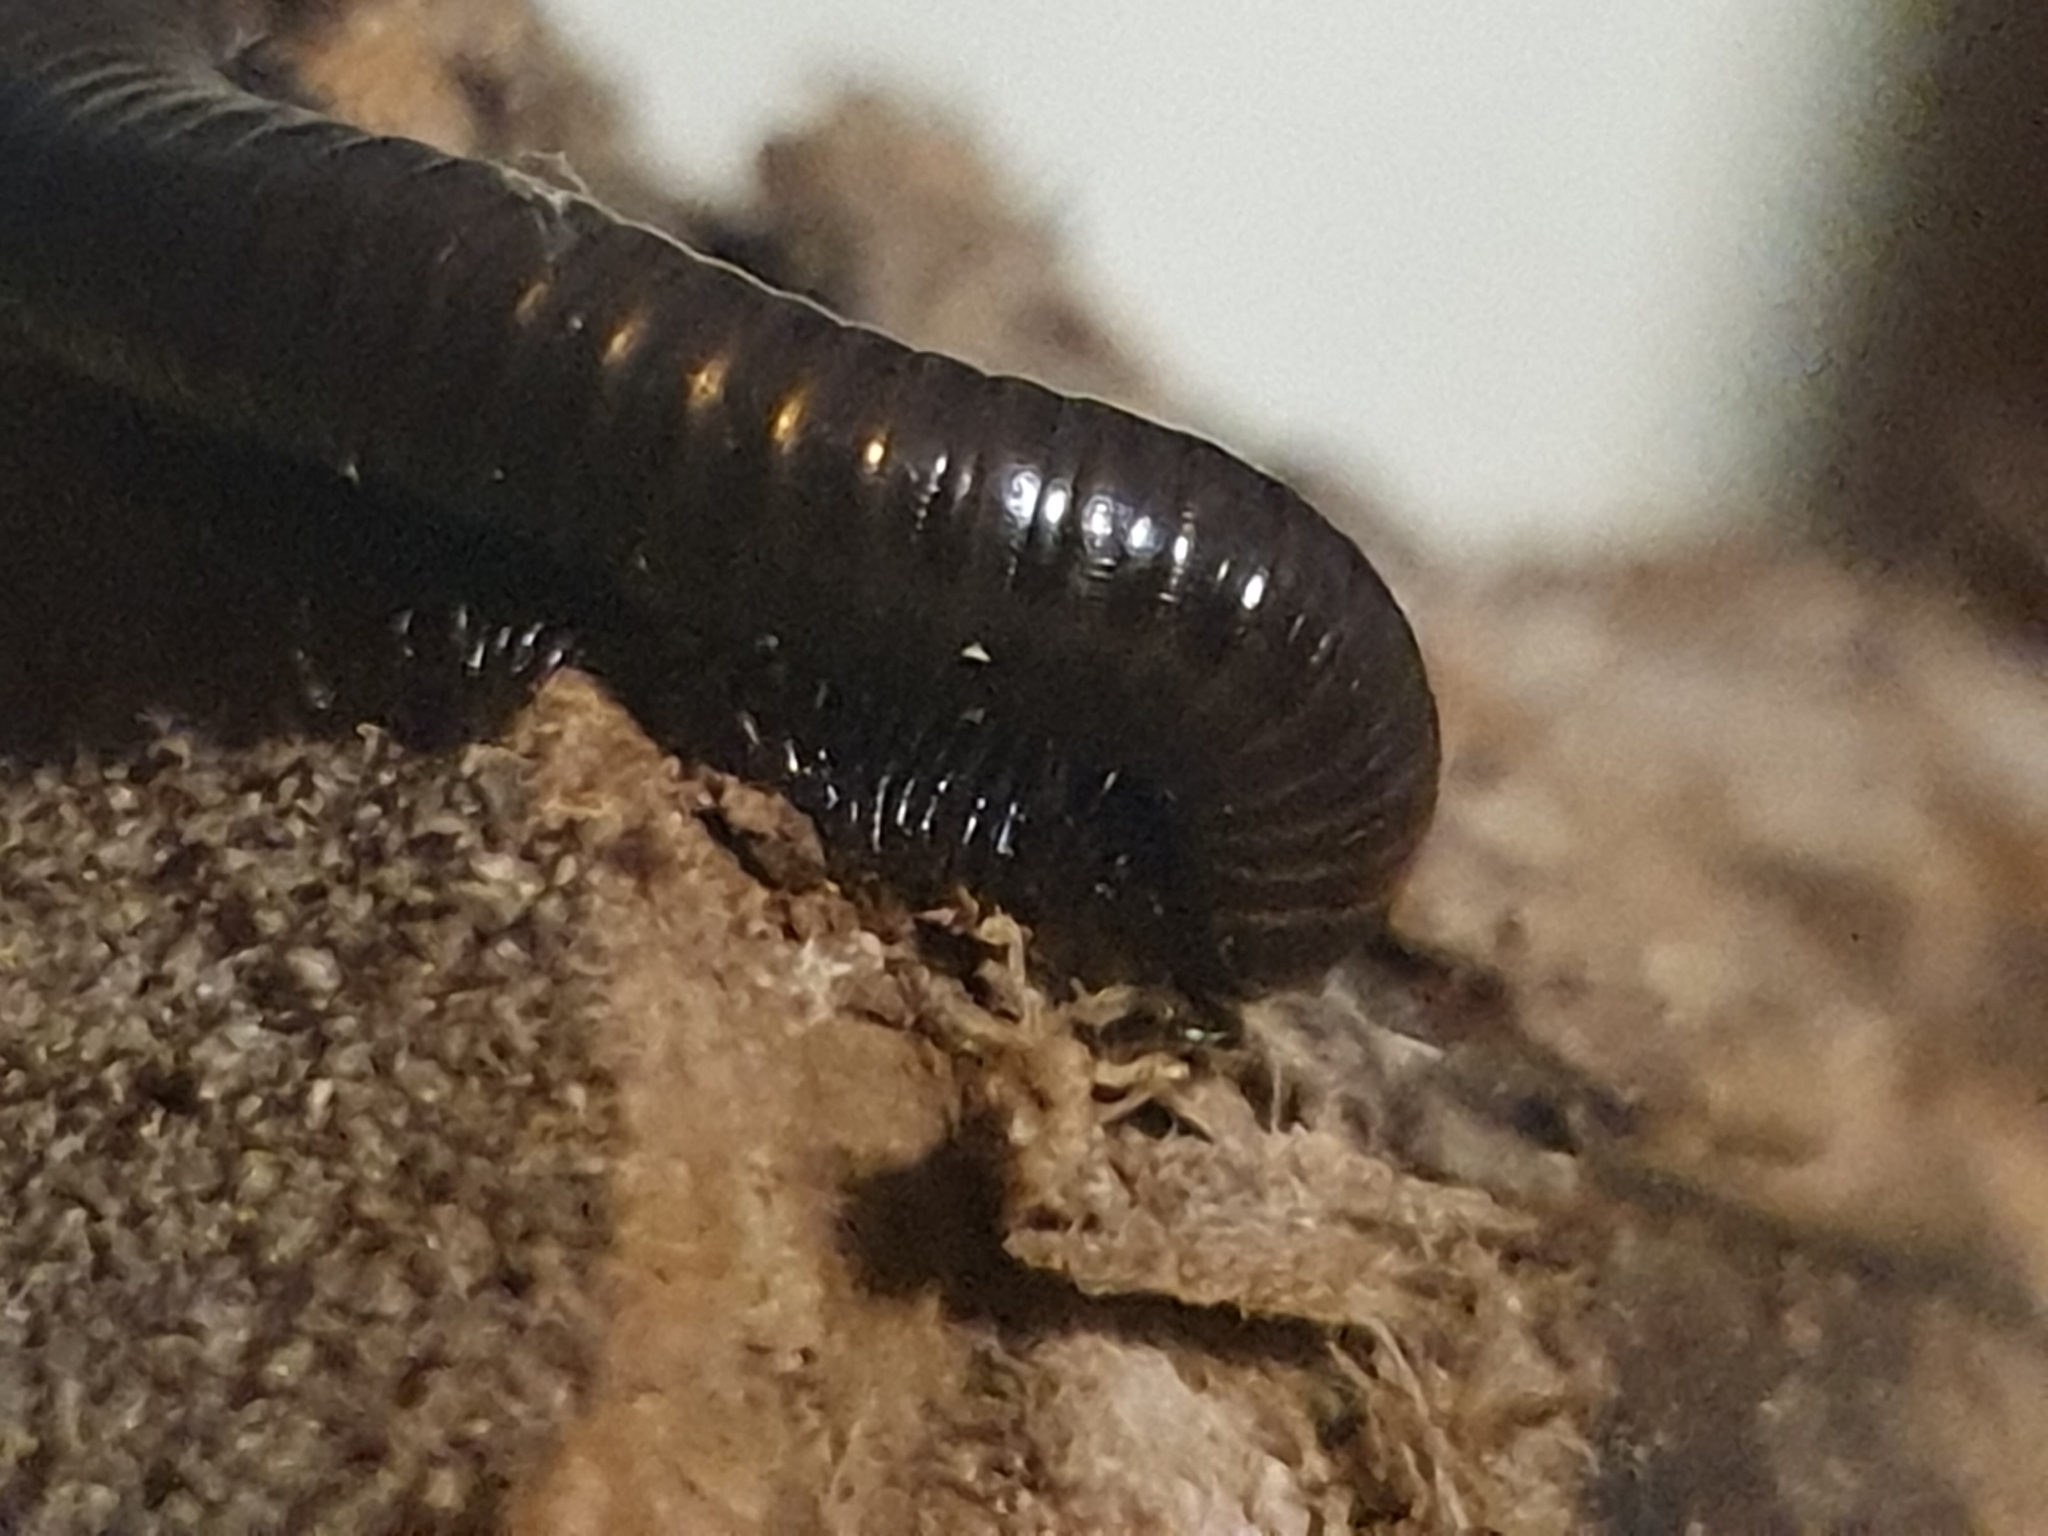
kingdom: Animalia
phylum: Arthropoda
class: Diplopoda
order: Julida
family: Julidae
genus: Pachyiulus
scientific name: Pachyiulus varius
